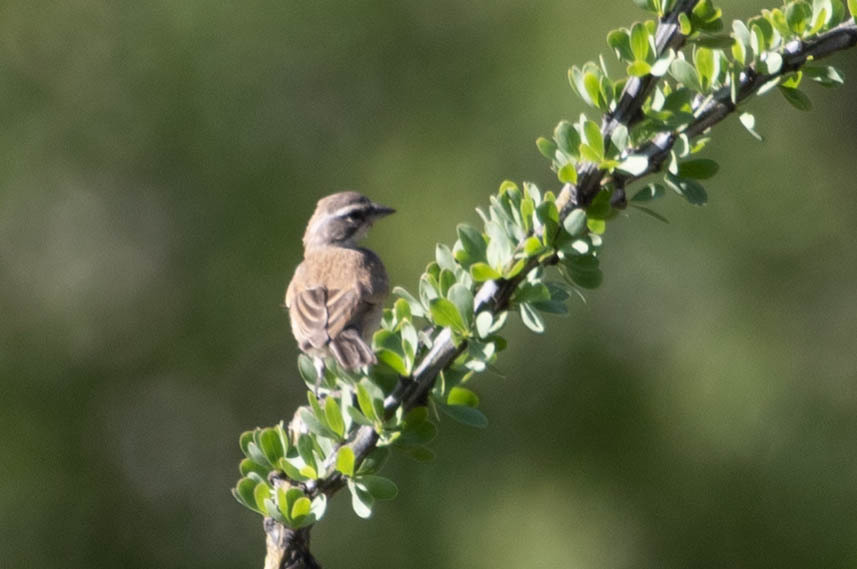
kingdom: Animalia
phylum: Chordata
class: Aves
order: Passeriformes
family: Passerellidae
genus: Amphispiza
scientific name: Amphispiza bilineata
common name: Black-throated sparrow
